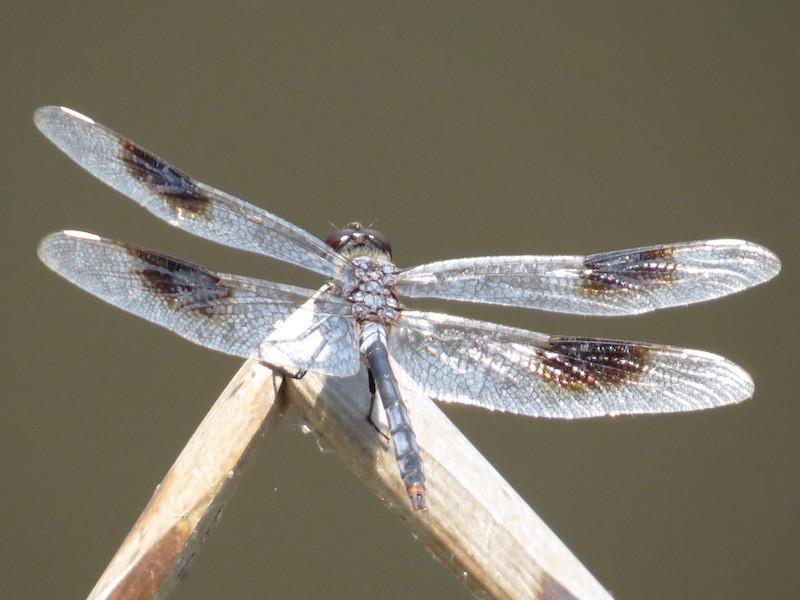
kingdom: Animalia
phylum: Arthropoda
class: Insecta
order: Odonata
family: Libellulidae
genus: Brachymesia
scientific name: Brachymesia gravida
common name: Four-spotted pennant
